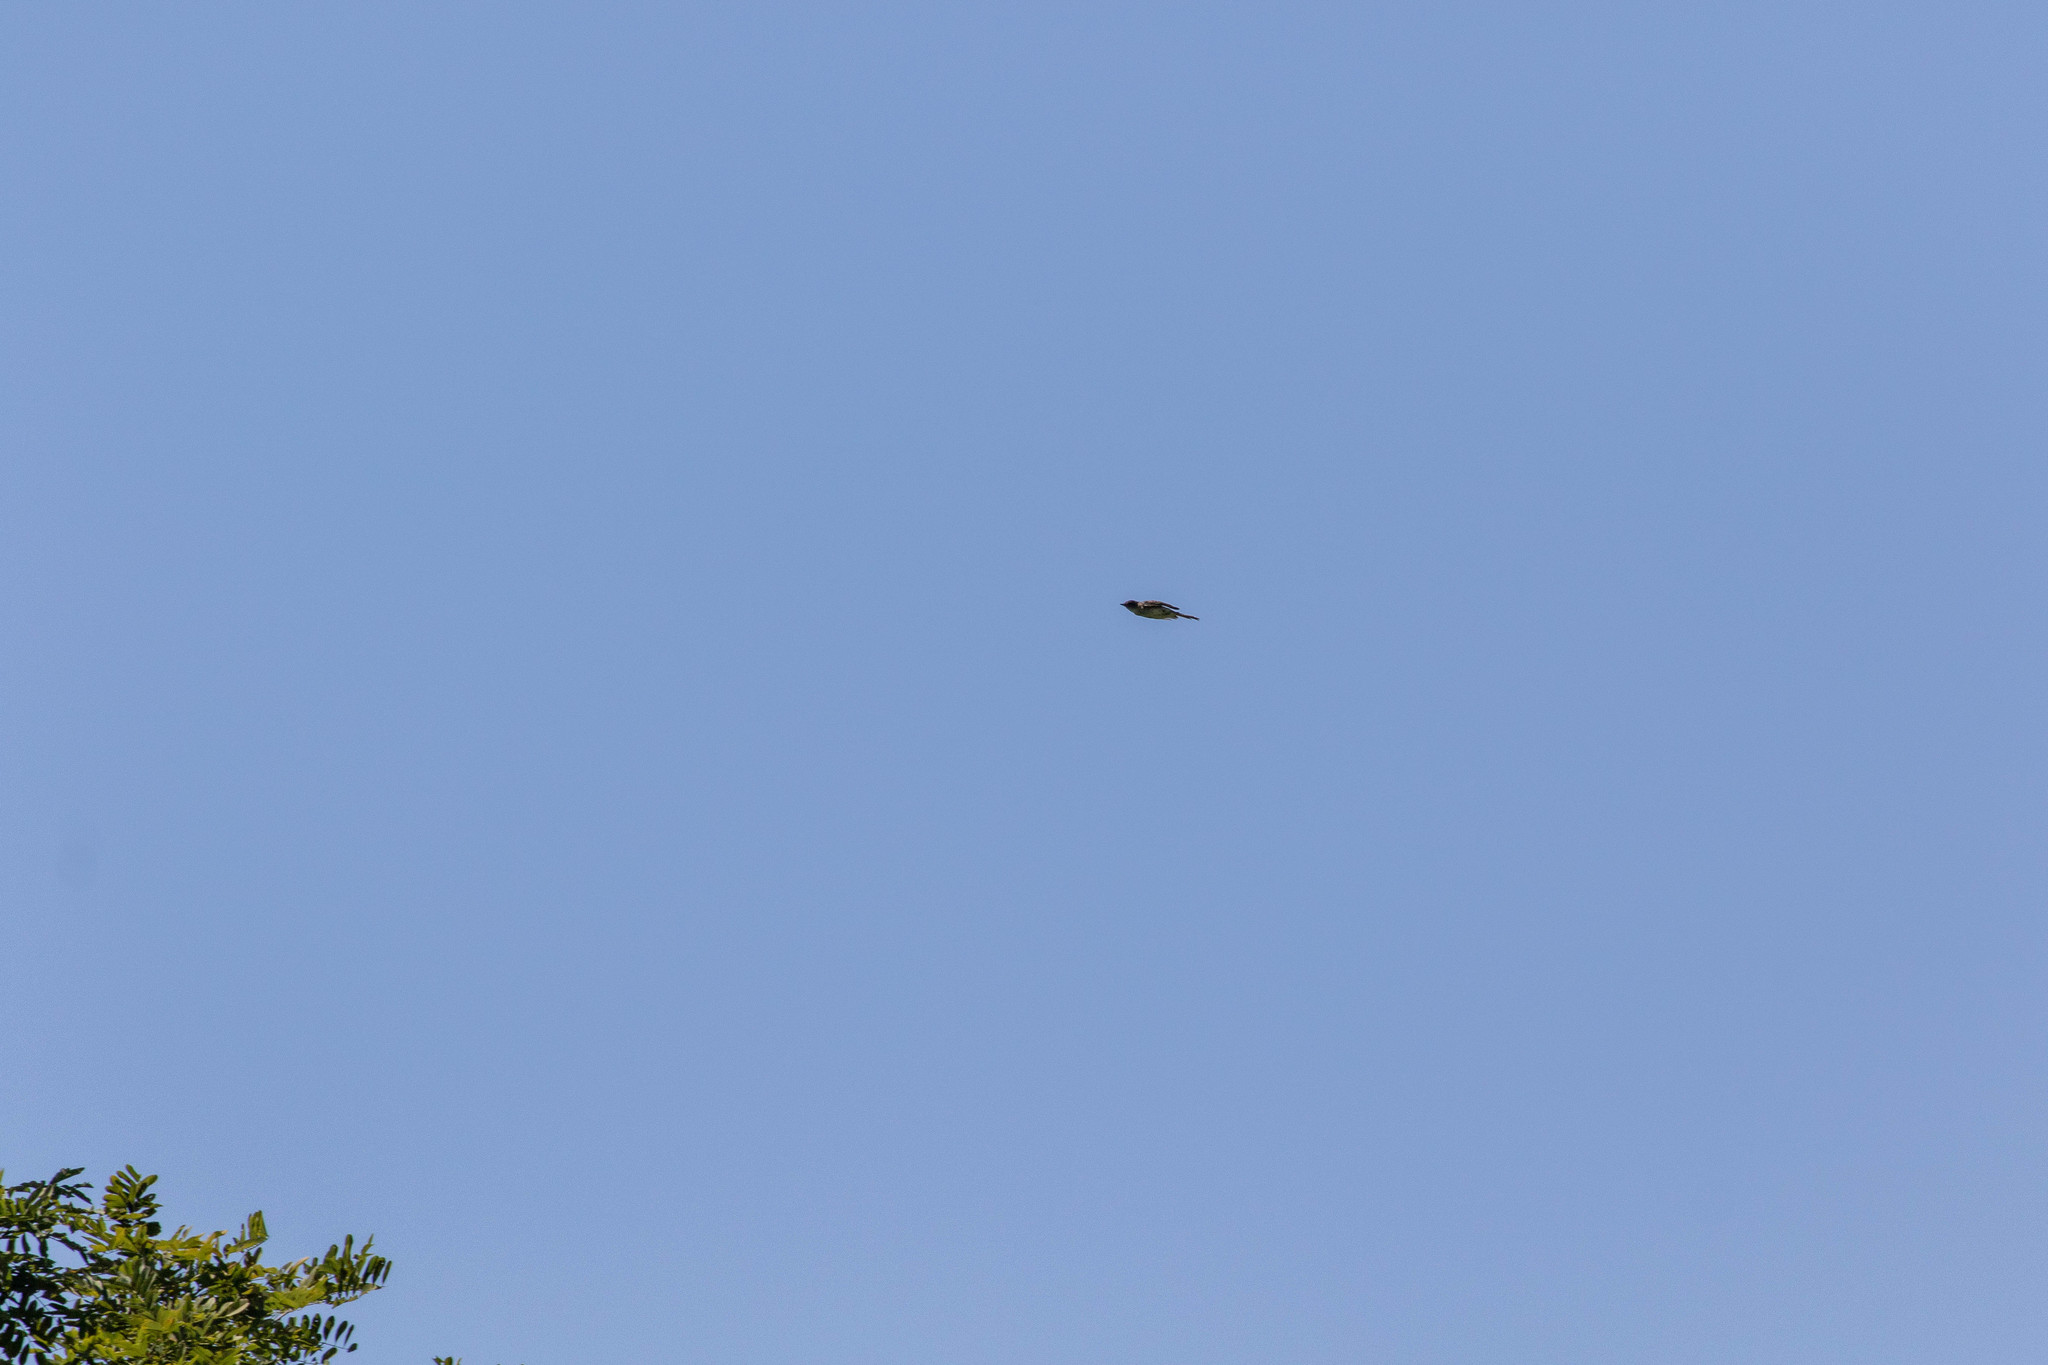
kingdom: Animalia
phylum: Chordata
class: Aves
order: Passeriformes
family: Tyrannidae
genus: Sayornis
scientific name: Sayornis phoebe
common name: Eastern phoebe
